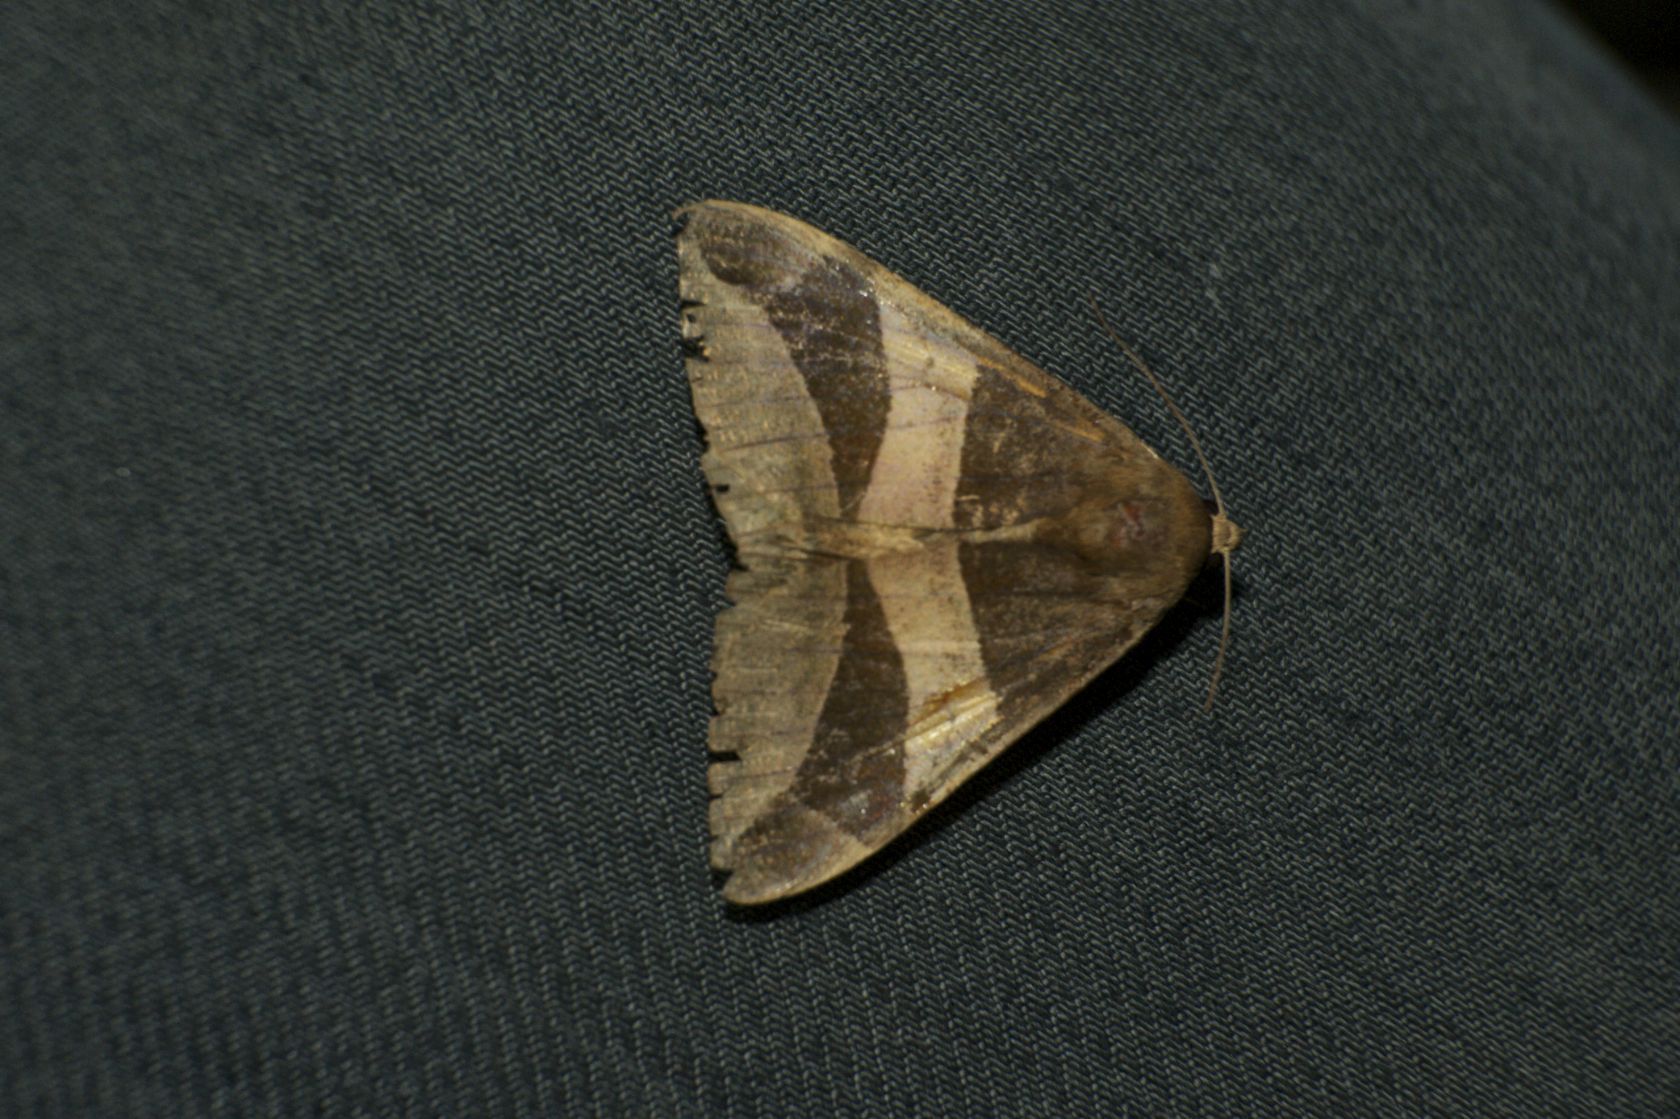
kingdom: Animalia
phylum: Arthropoda
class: Insecta
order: Lepidoptera
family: Erebidae
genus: Bastilla
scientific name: Bastilla fulvotaenia
